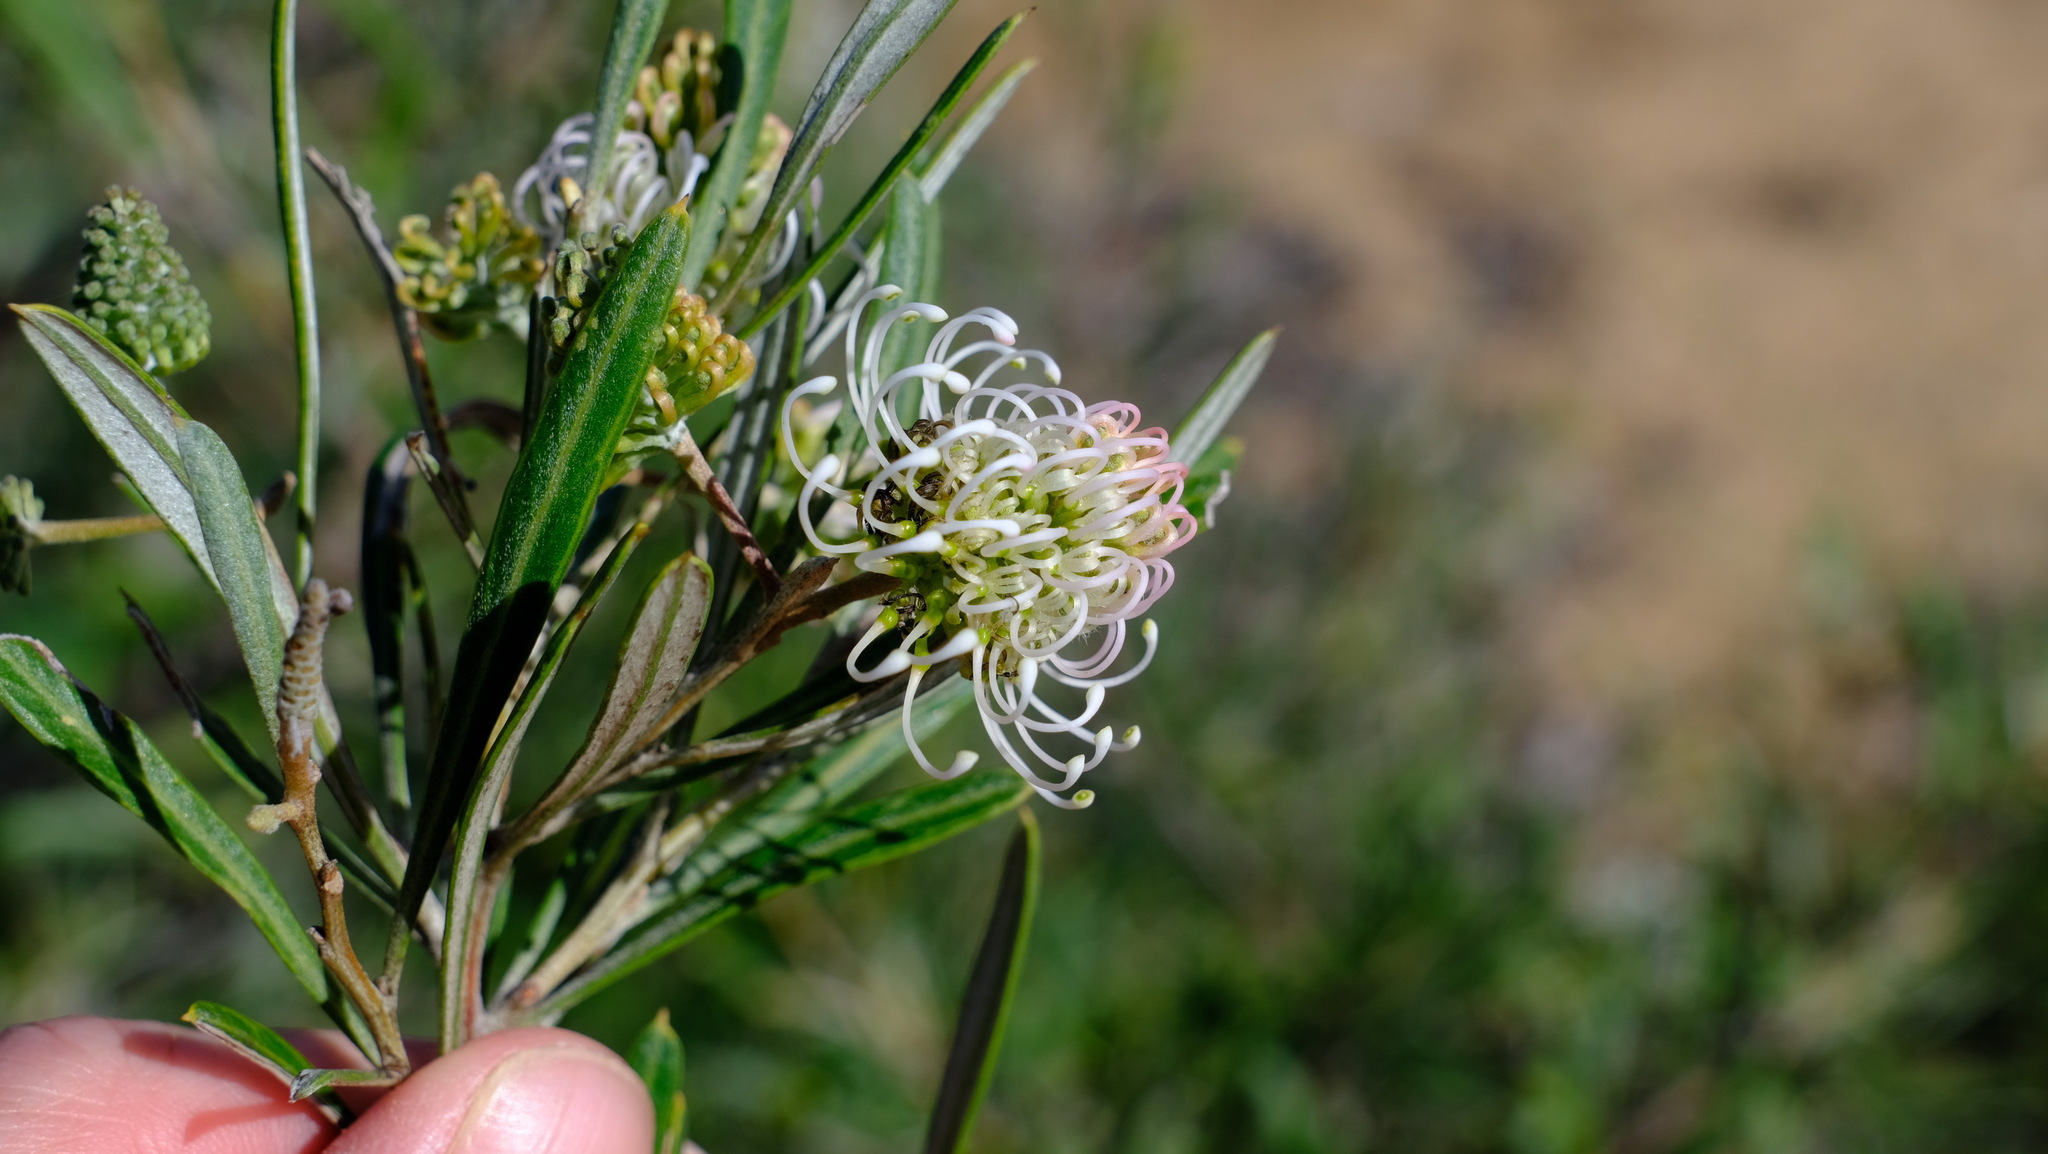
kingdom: Plantae
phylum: Tracheophyta
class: Magnoliopsida
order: Proteales
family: Proteaceae
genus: Grevillea
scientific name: Grevillea commutata
